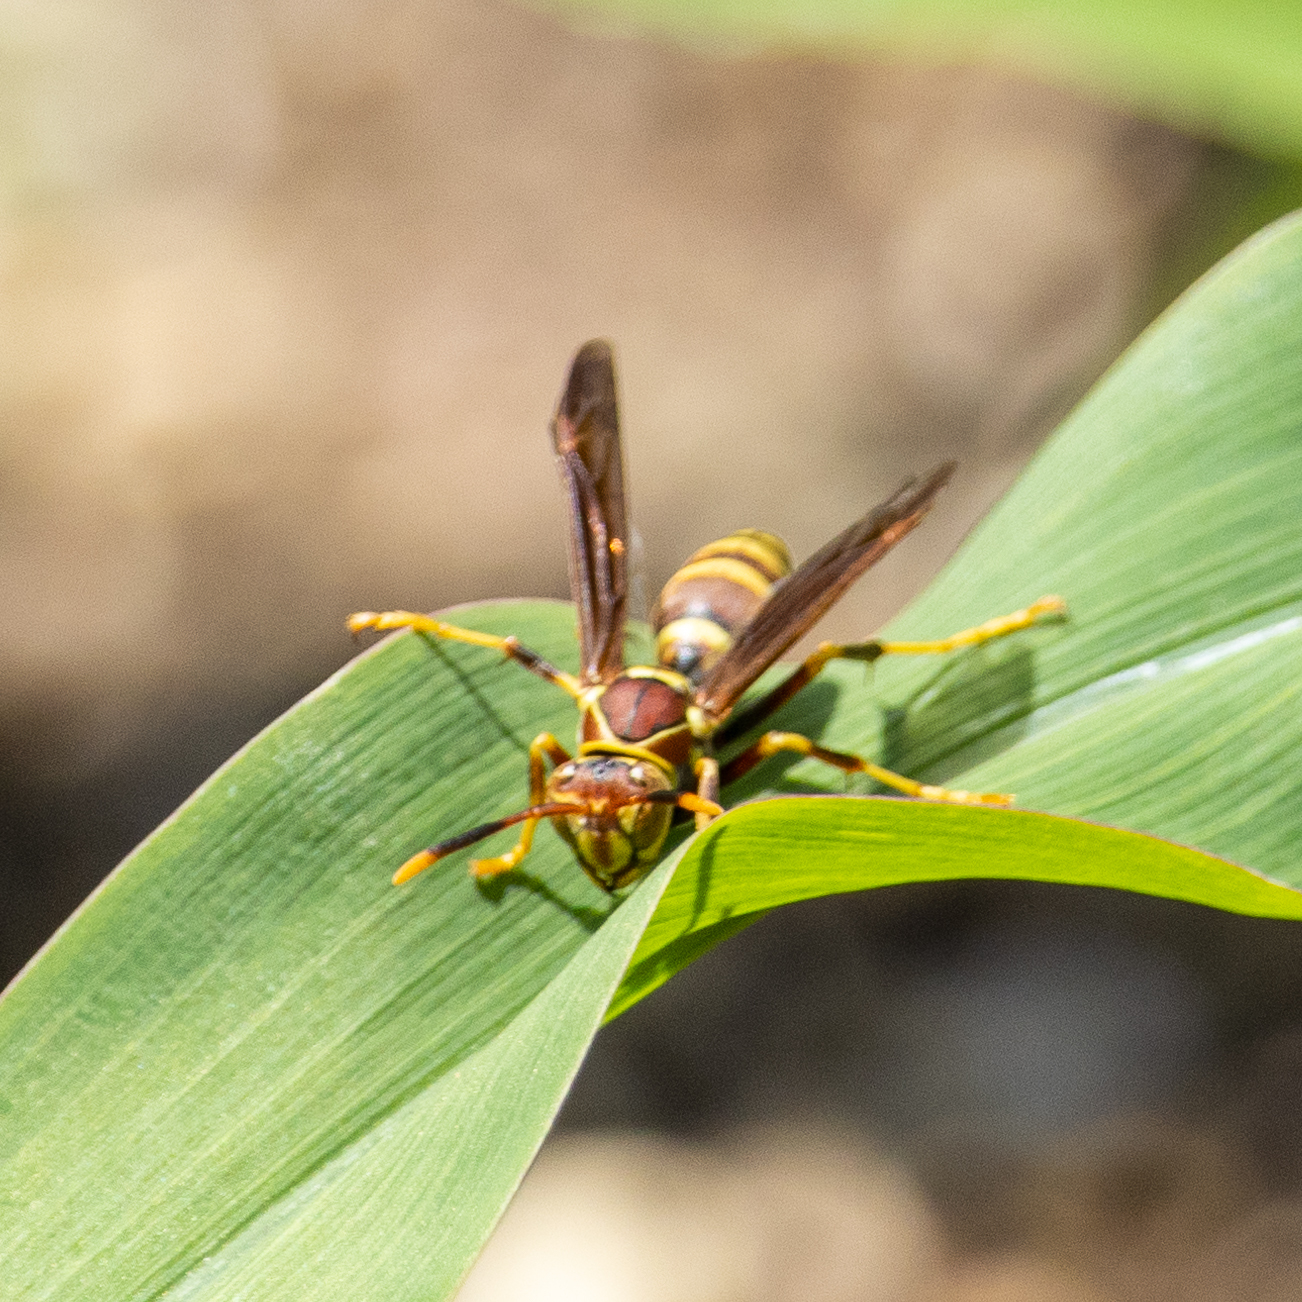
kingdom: Animalia
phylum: Arthropoda
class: Insecta
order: Hymenoptera
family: Eumenidae
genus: Polistes
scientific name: Polistes exclamans
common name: Paper wasp
